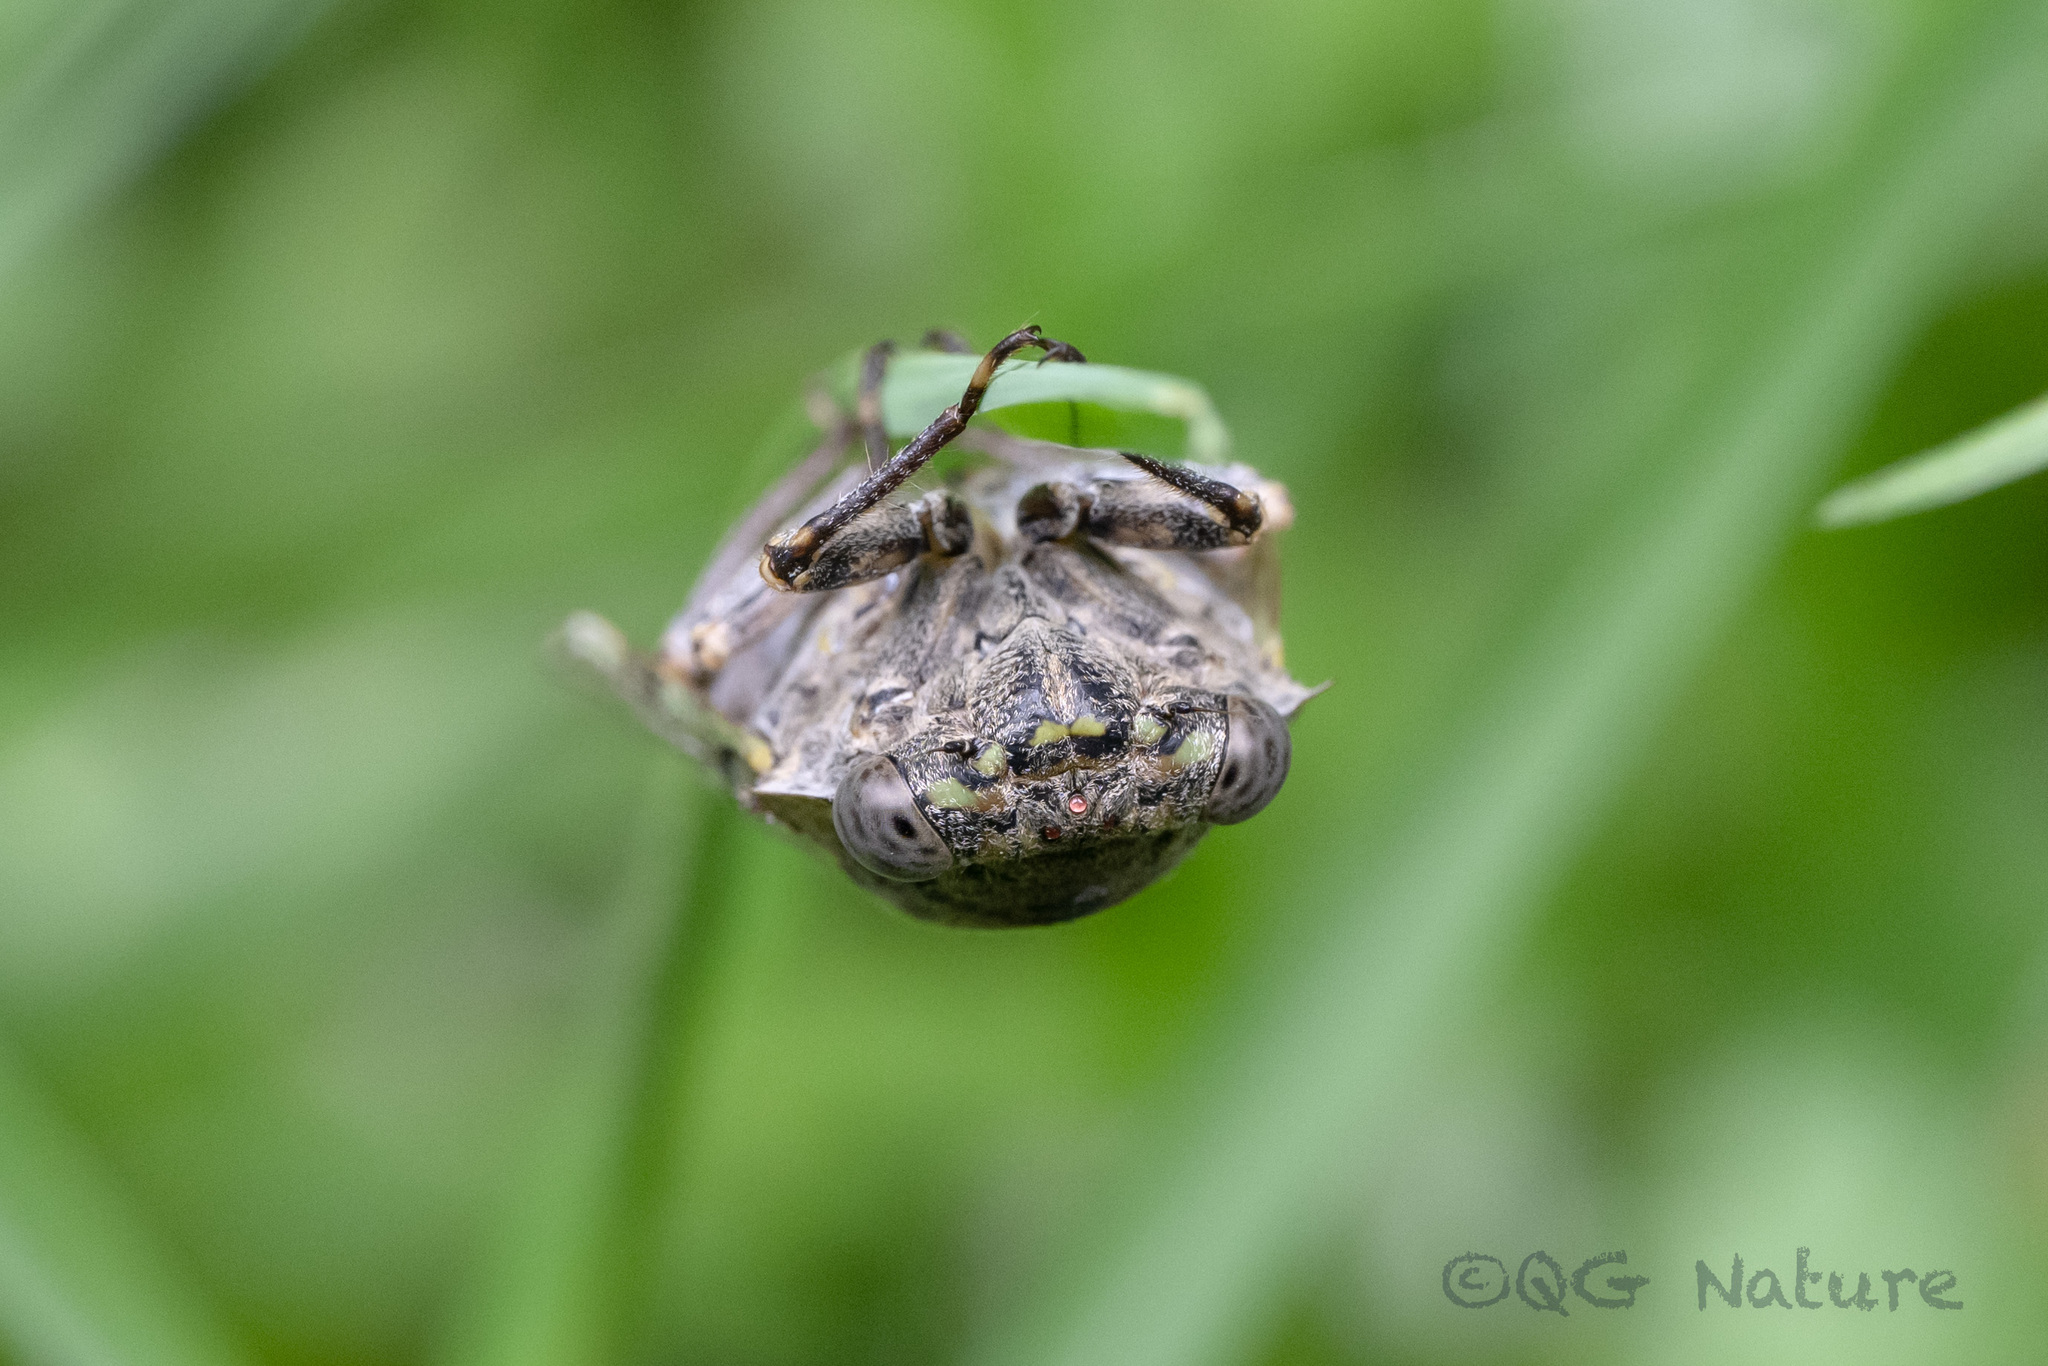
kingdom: Animalia
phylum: Arthropoda
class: Insecta
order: Hemiptera
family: Cicadidae
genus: Platypleura
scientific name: Platypleura kaempferi
